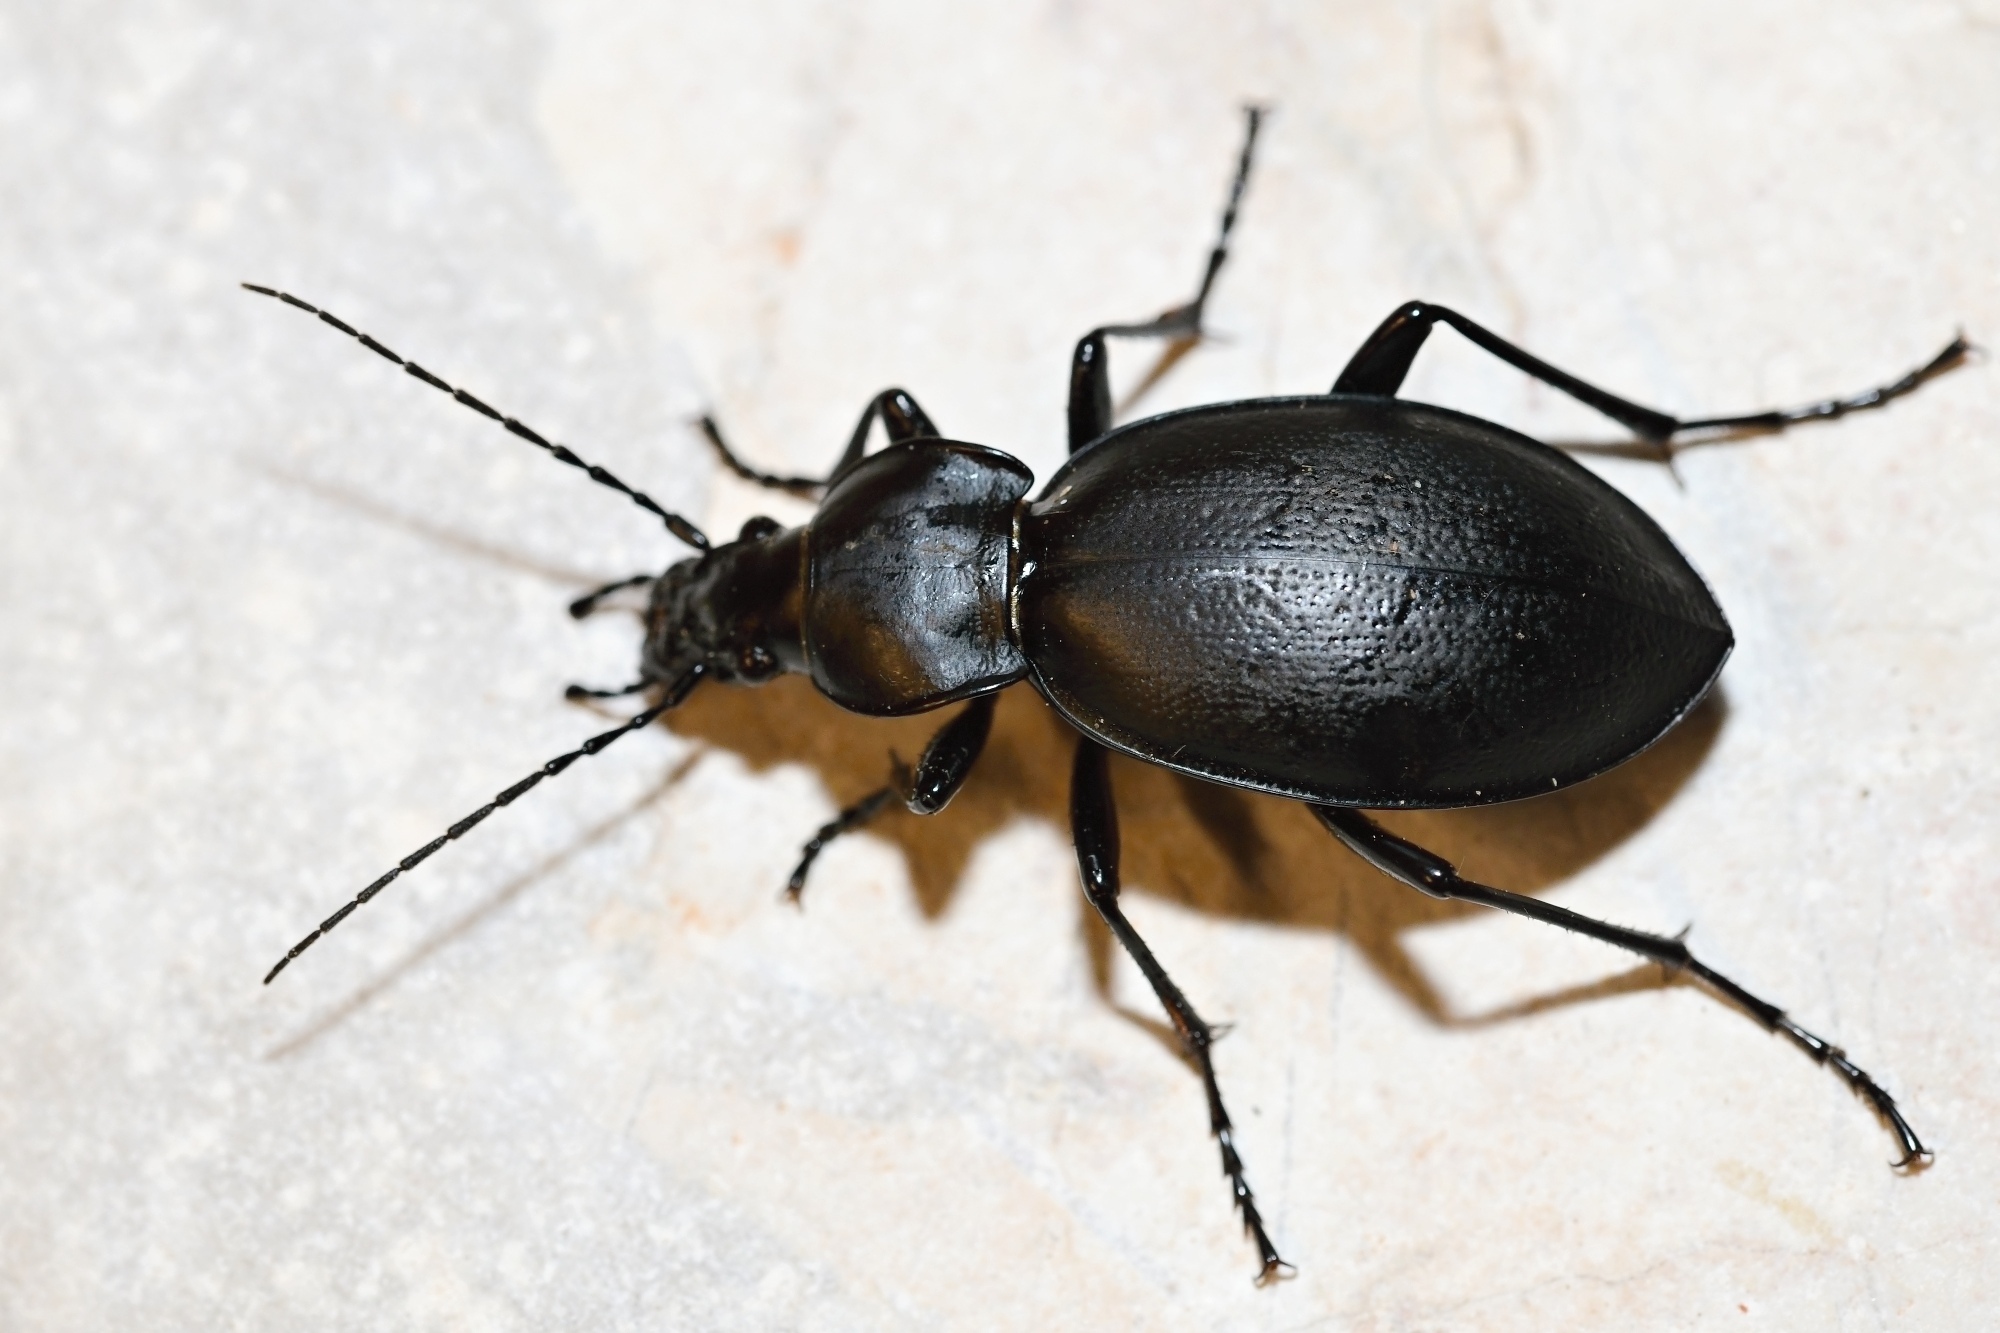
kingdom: Animalia
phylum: Arthropoda
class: Insecta
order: Coleoptera
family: Carabidae
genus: Carabus
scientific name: Carabus coriaceus
